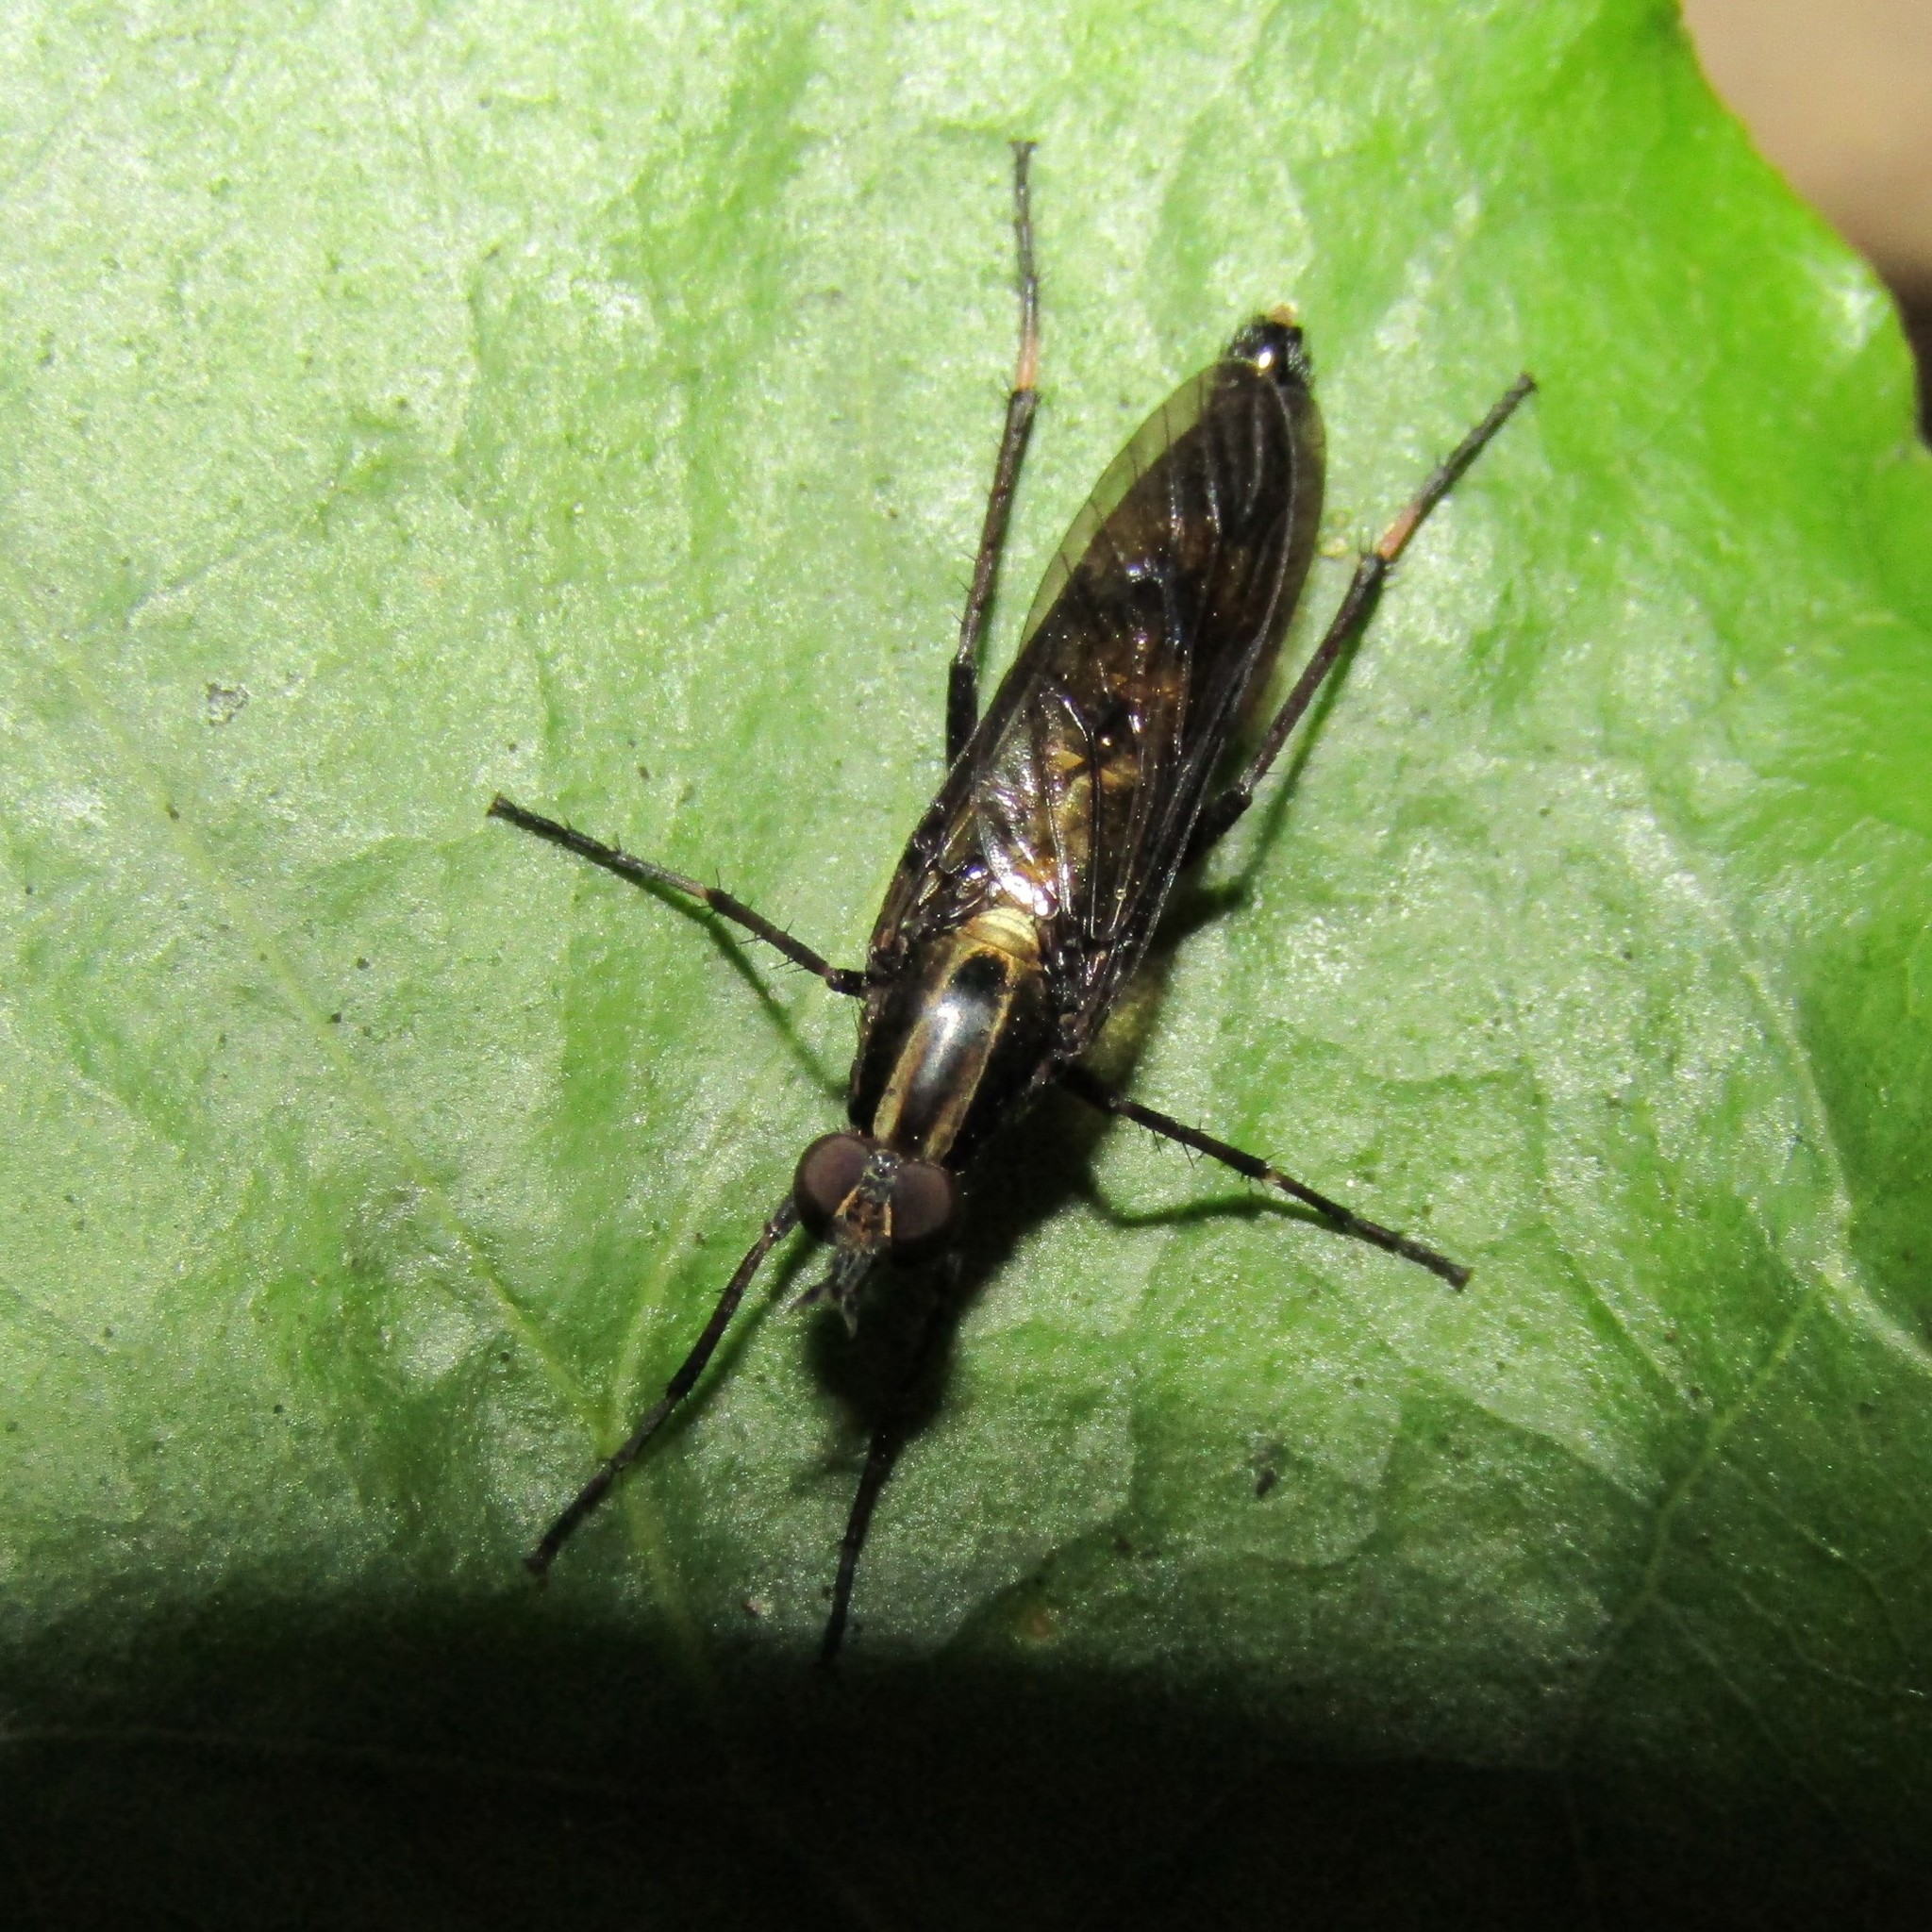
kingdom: Animalia
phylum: Arthropoda
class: Insecta
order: Diptera
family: Therevidae
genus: Anabarhynchus
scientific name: Anabarhynchus micans
